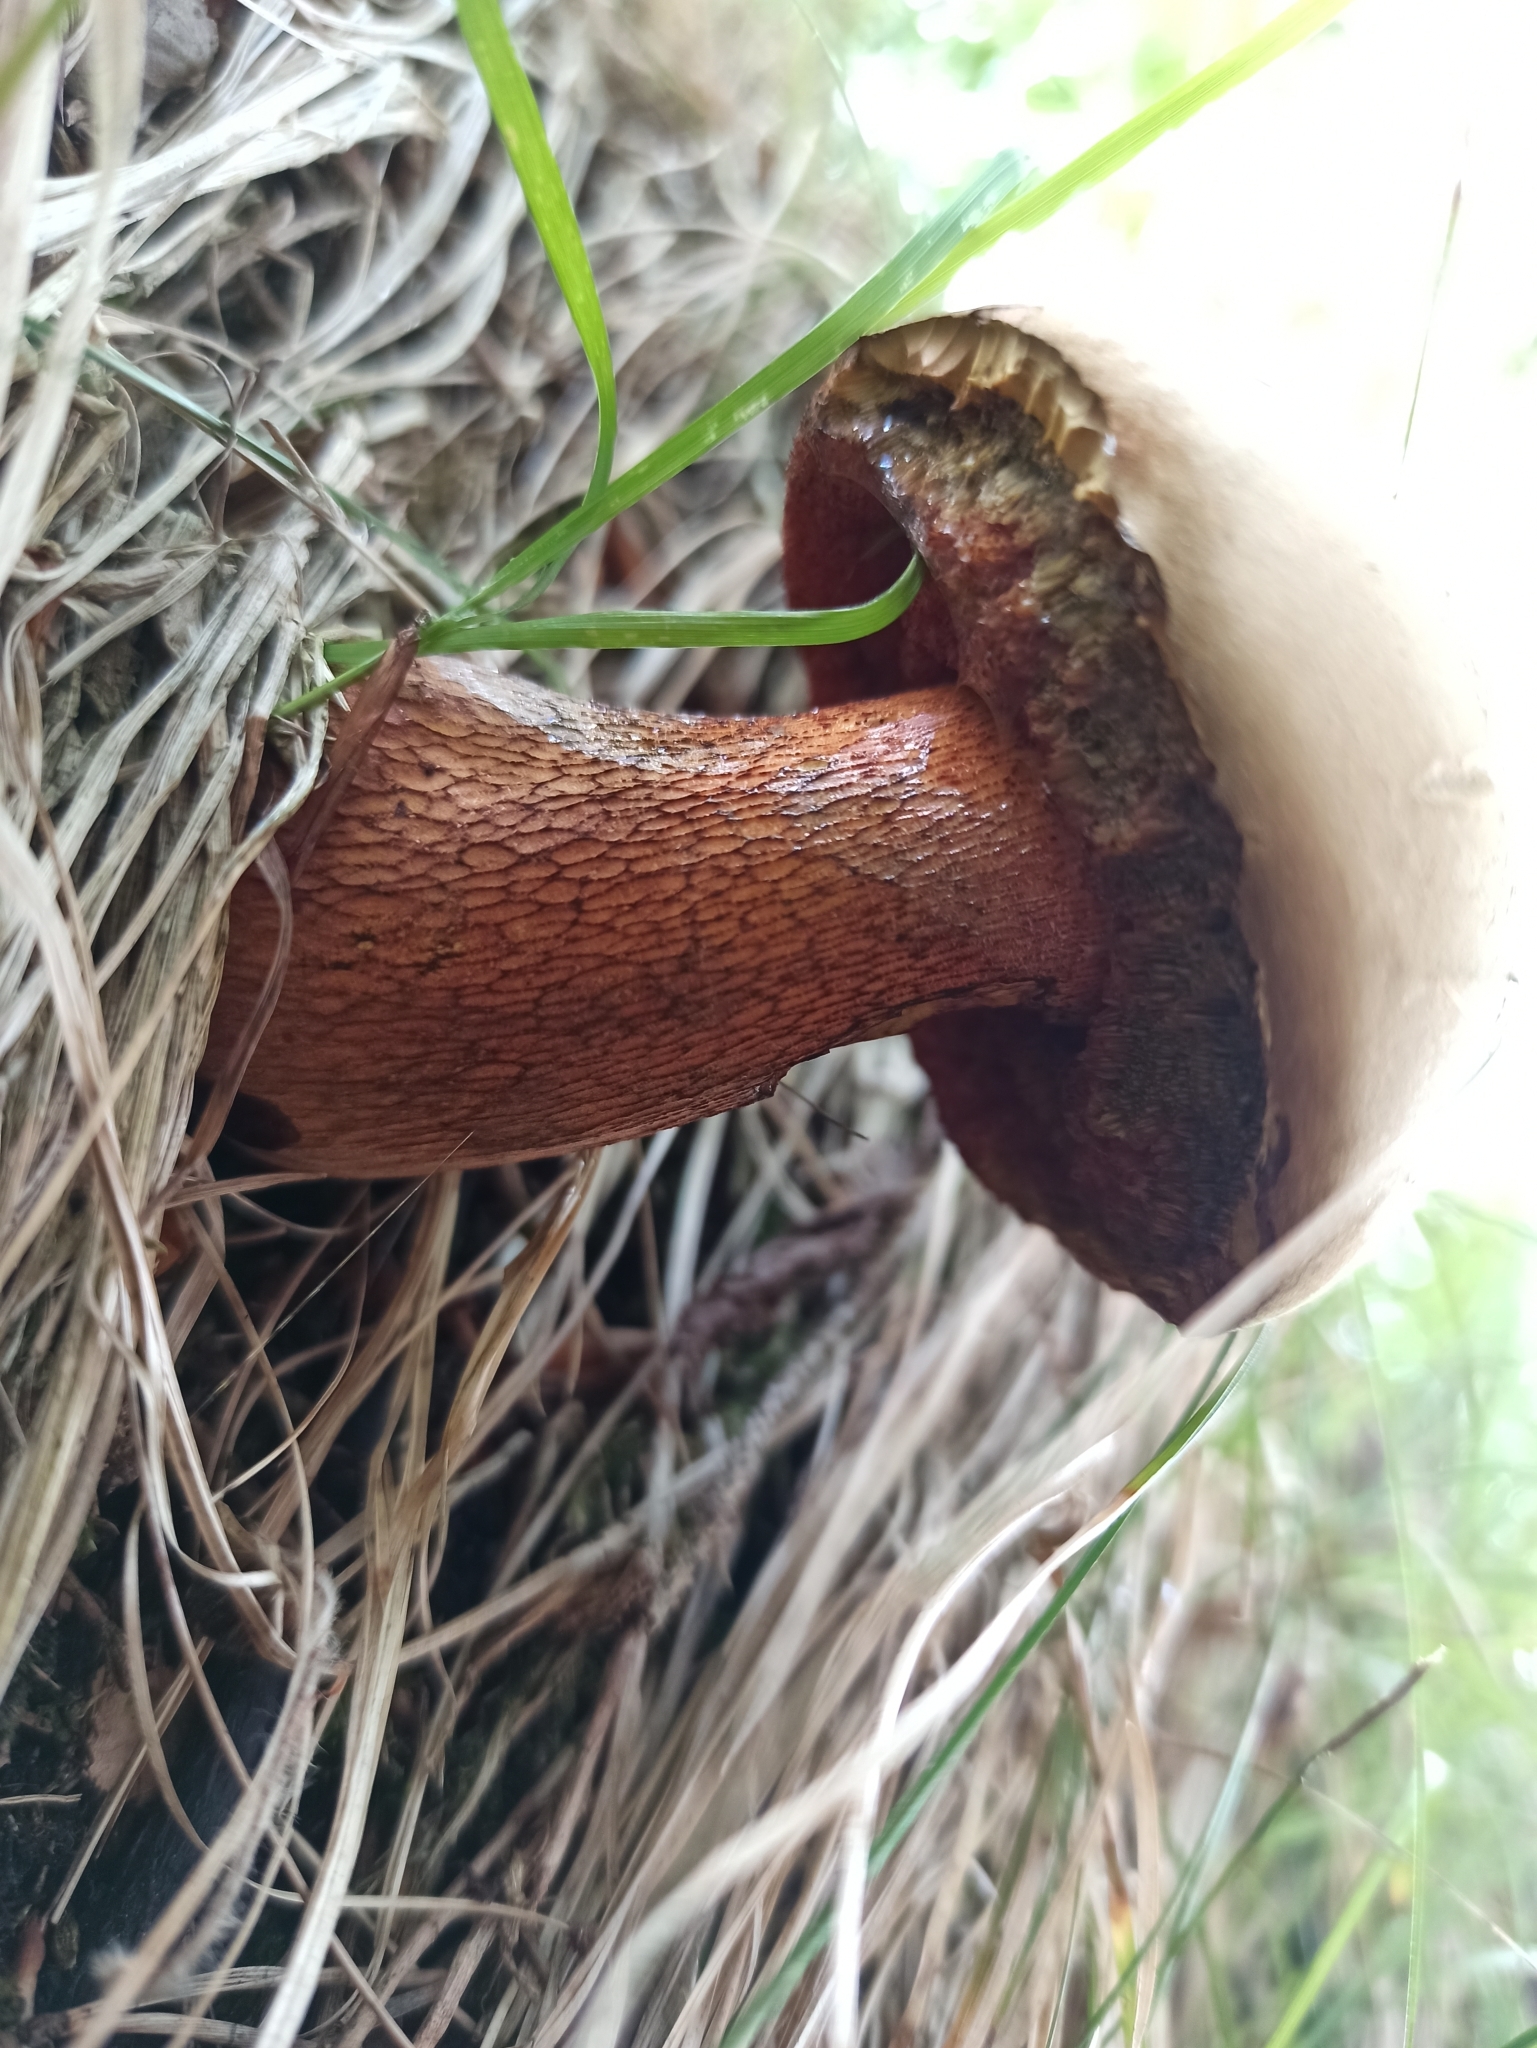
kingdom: Fungi
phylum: Basidiomycota
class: Agaricomycetes
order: Boletales
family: Boletaceae
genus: Rubroboletus
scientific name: Rubroboletus rubrosanguineus
